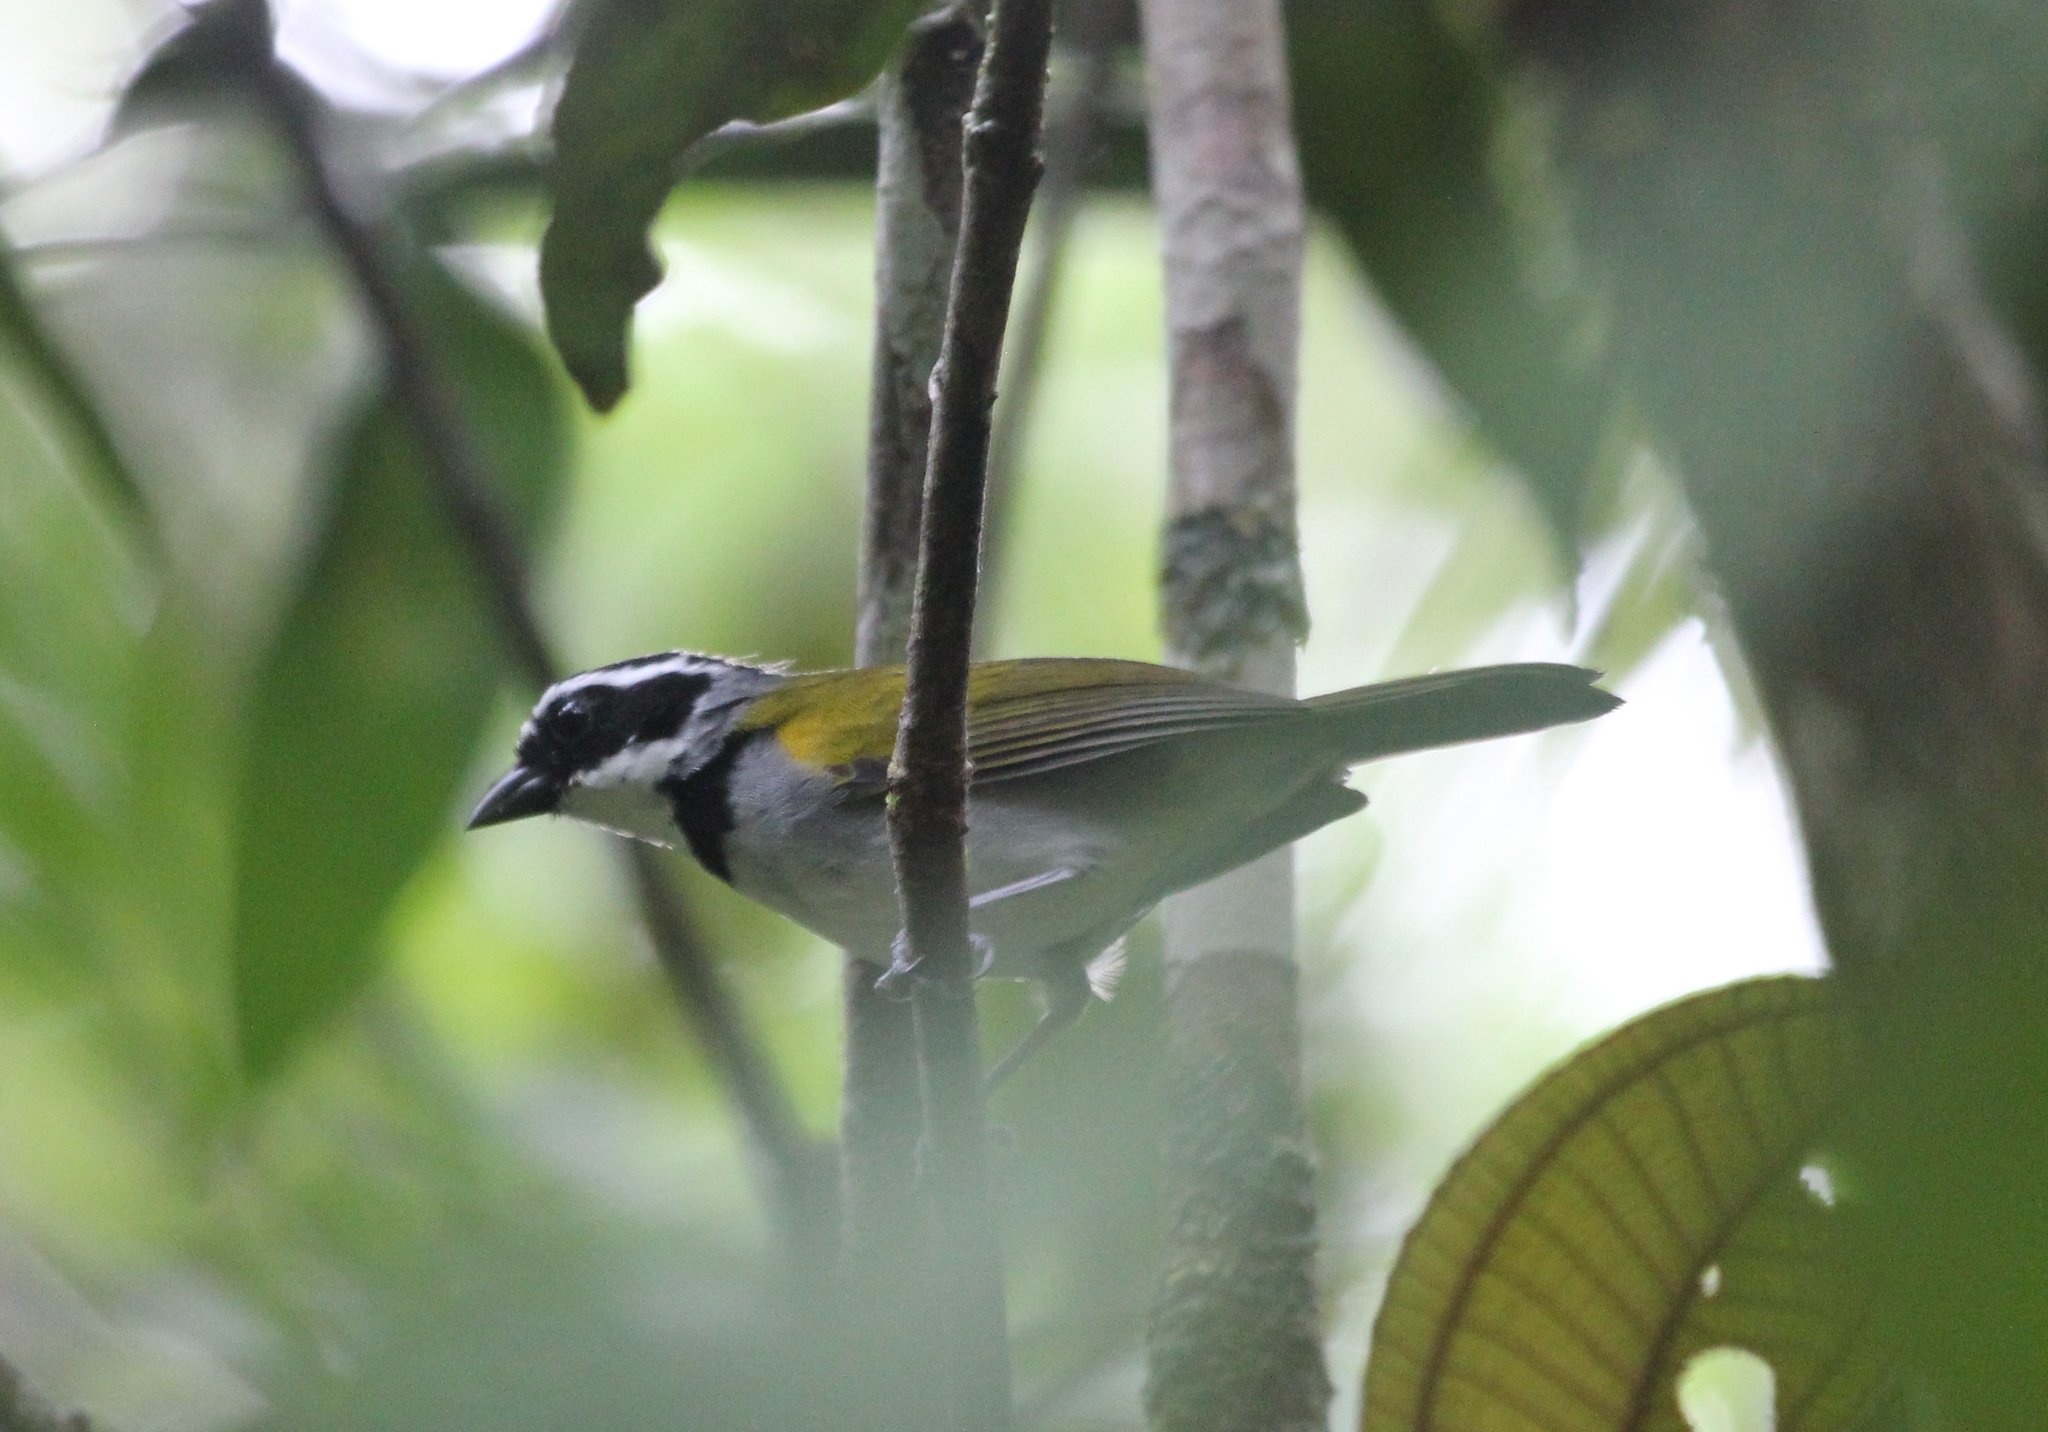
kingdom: Animalia
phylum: Chordata
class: Aves
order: Passeriformes
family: Passerellidae
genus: Arremon
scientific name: Arremon taciturnus
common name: Pectoral sparrow
